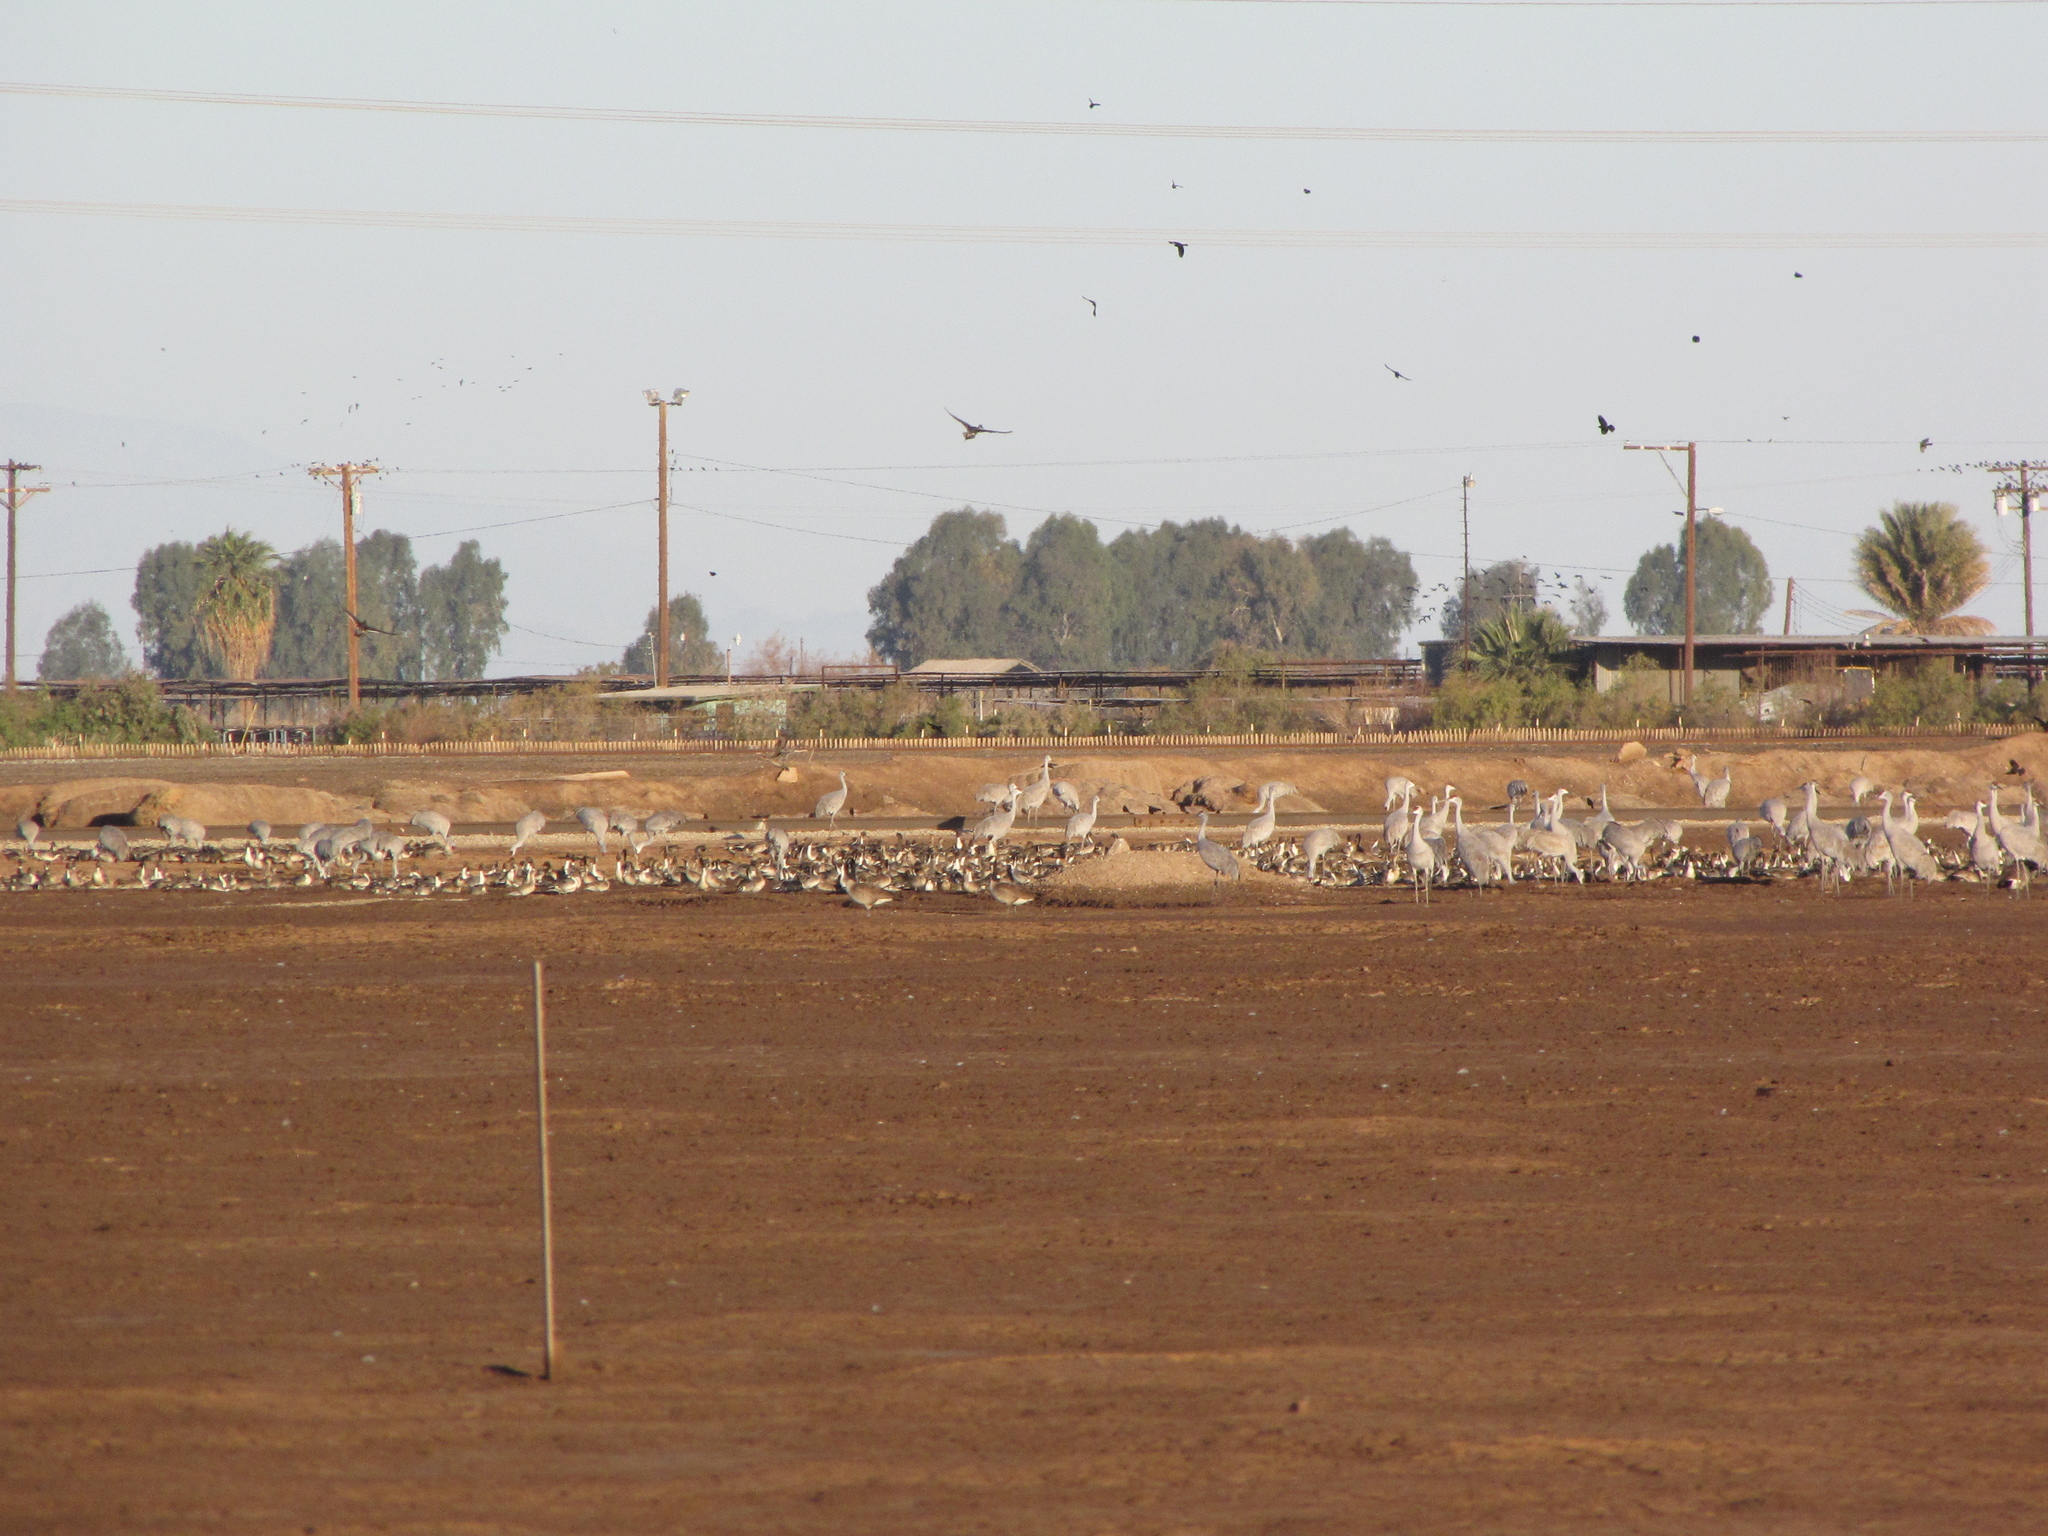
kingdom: Animalia
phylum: Chordata
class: Aves
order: Gruiformes
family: Gruidae
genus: Grus
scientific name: Grus canadensis
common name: Sandhill crane
